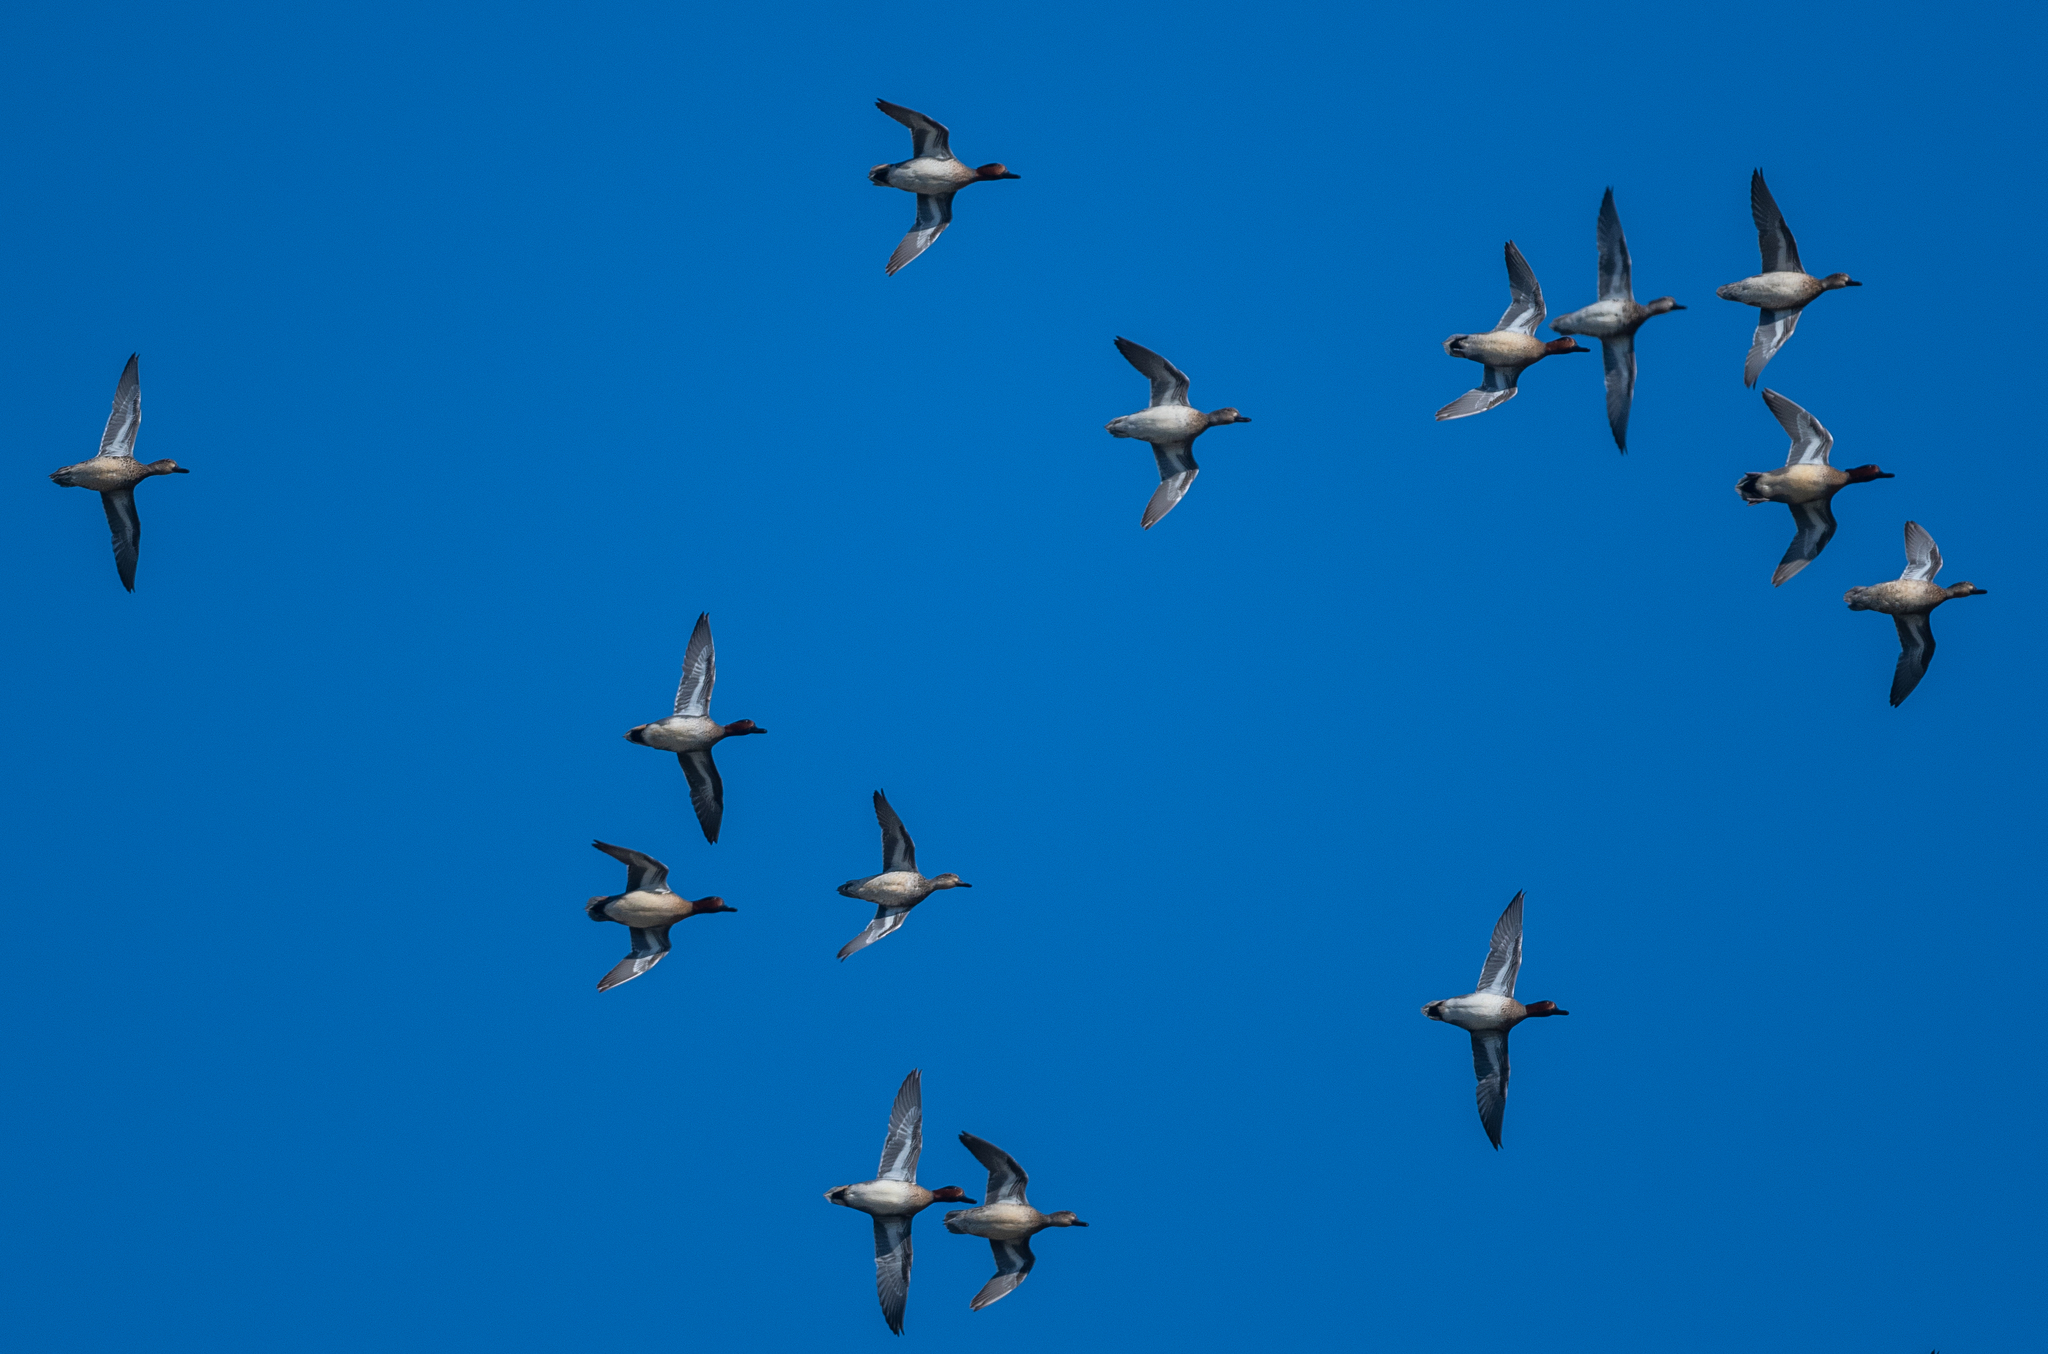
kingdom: Animalia
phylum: Chordata
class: Aves
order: Anseriformes
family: Anatidae
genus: Anas
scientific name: Anas crecca
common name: Eurasian teal
